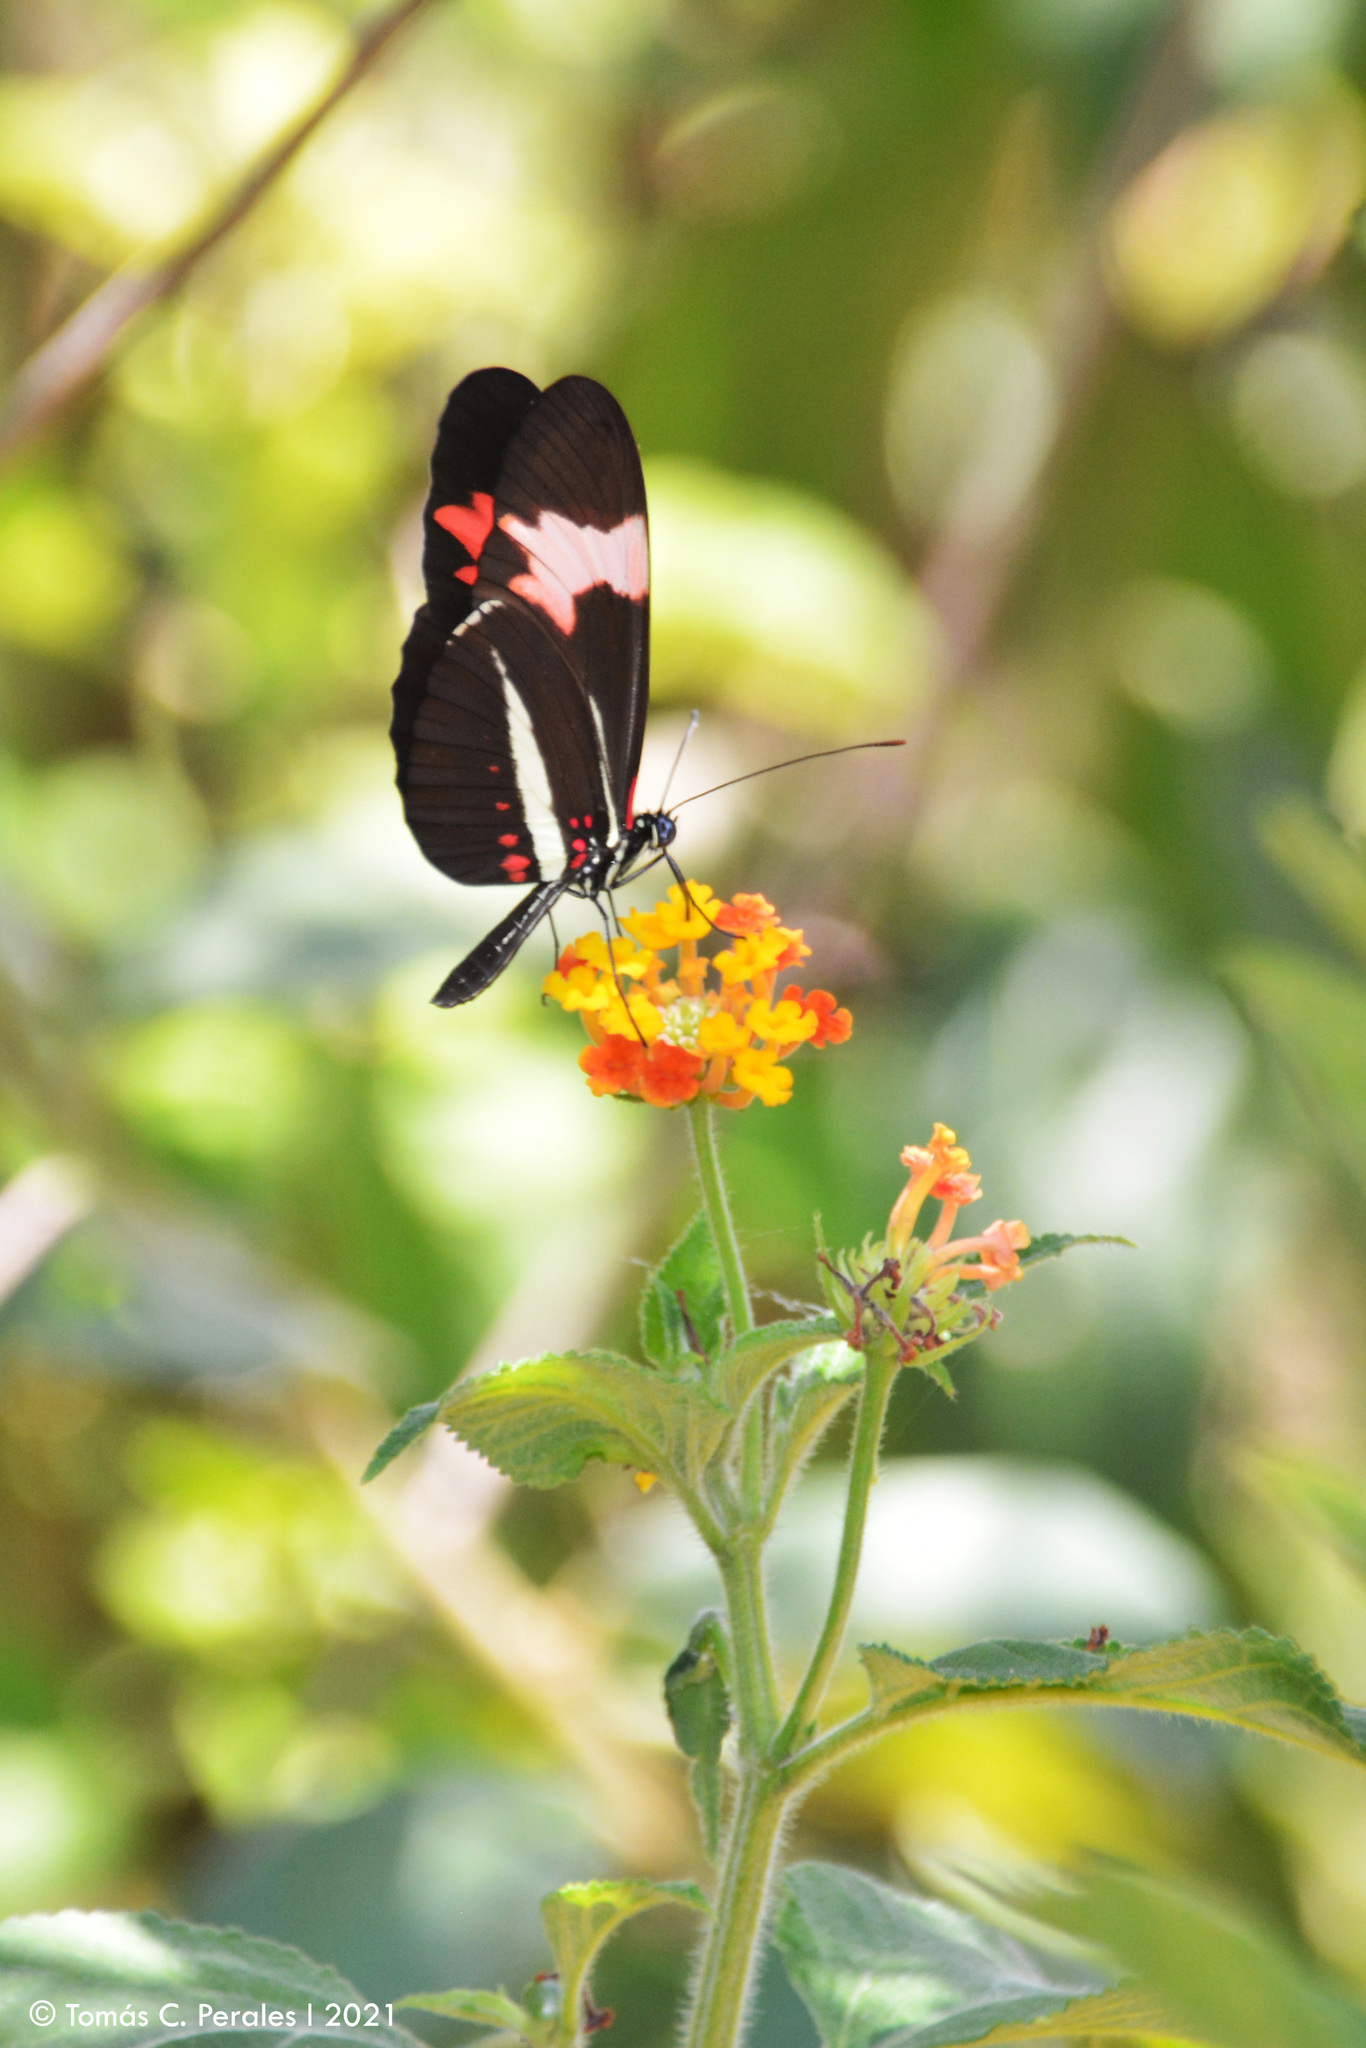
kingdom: Animalia
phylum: Arthropoda
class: Insecta
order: Lepidoptera
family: Nymphalidae
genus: Heliconius
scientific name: Heliconius erato
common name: Common patch longwing
